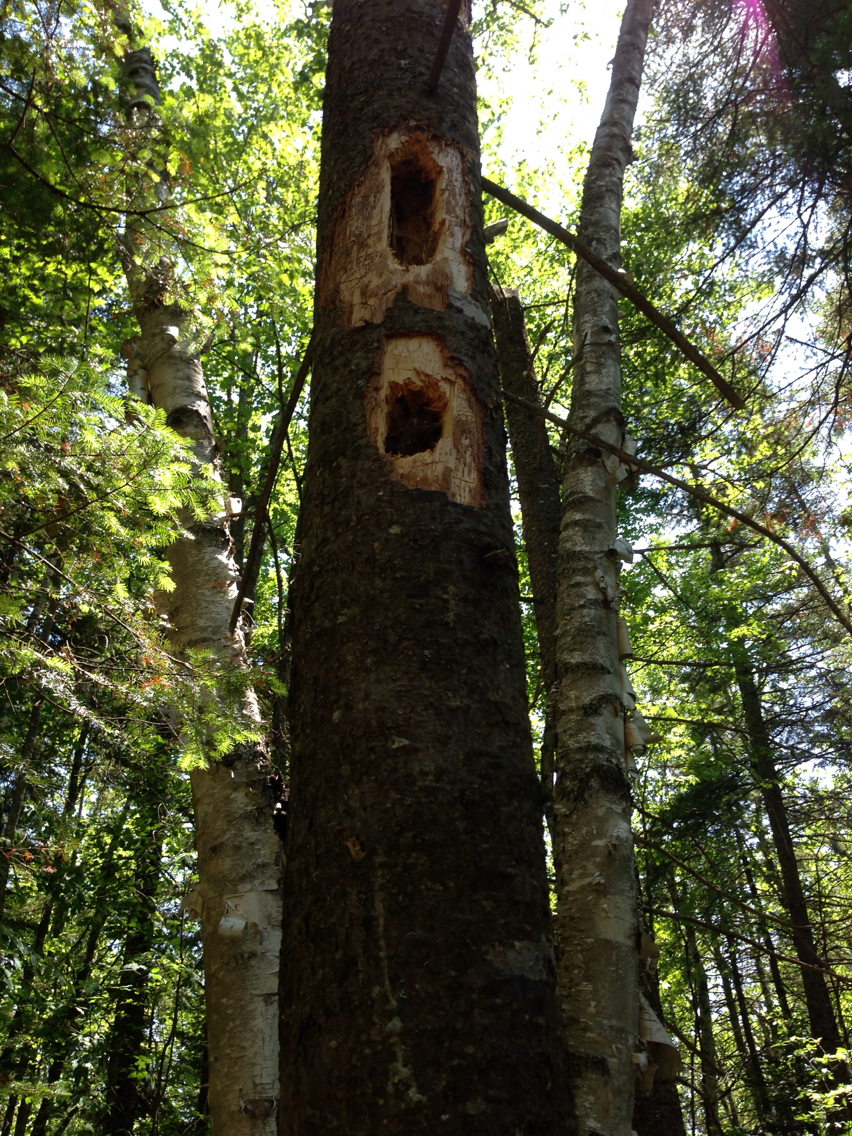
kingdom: Animalia
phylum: Chordata
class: Aves
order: Piciformes
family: Picidae
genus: Dryocopus
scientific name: Dryocopus pileatus
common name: Pileated woodpecker
